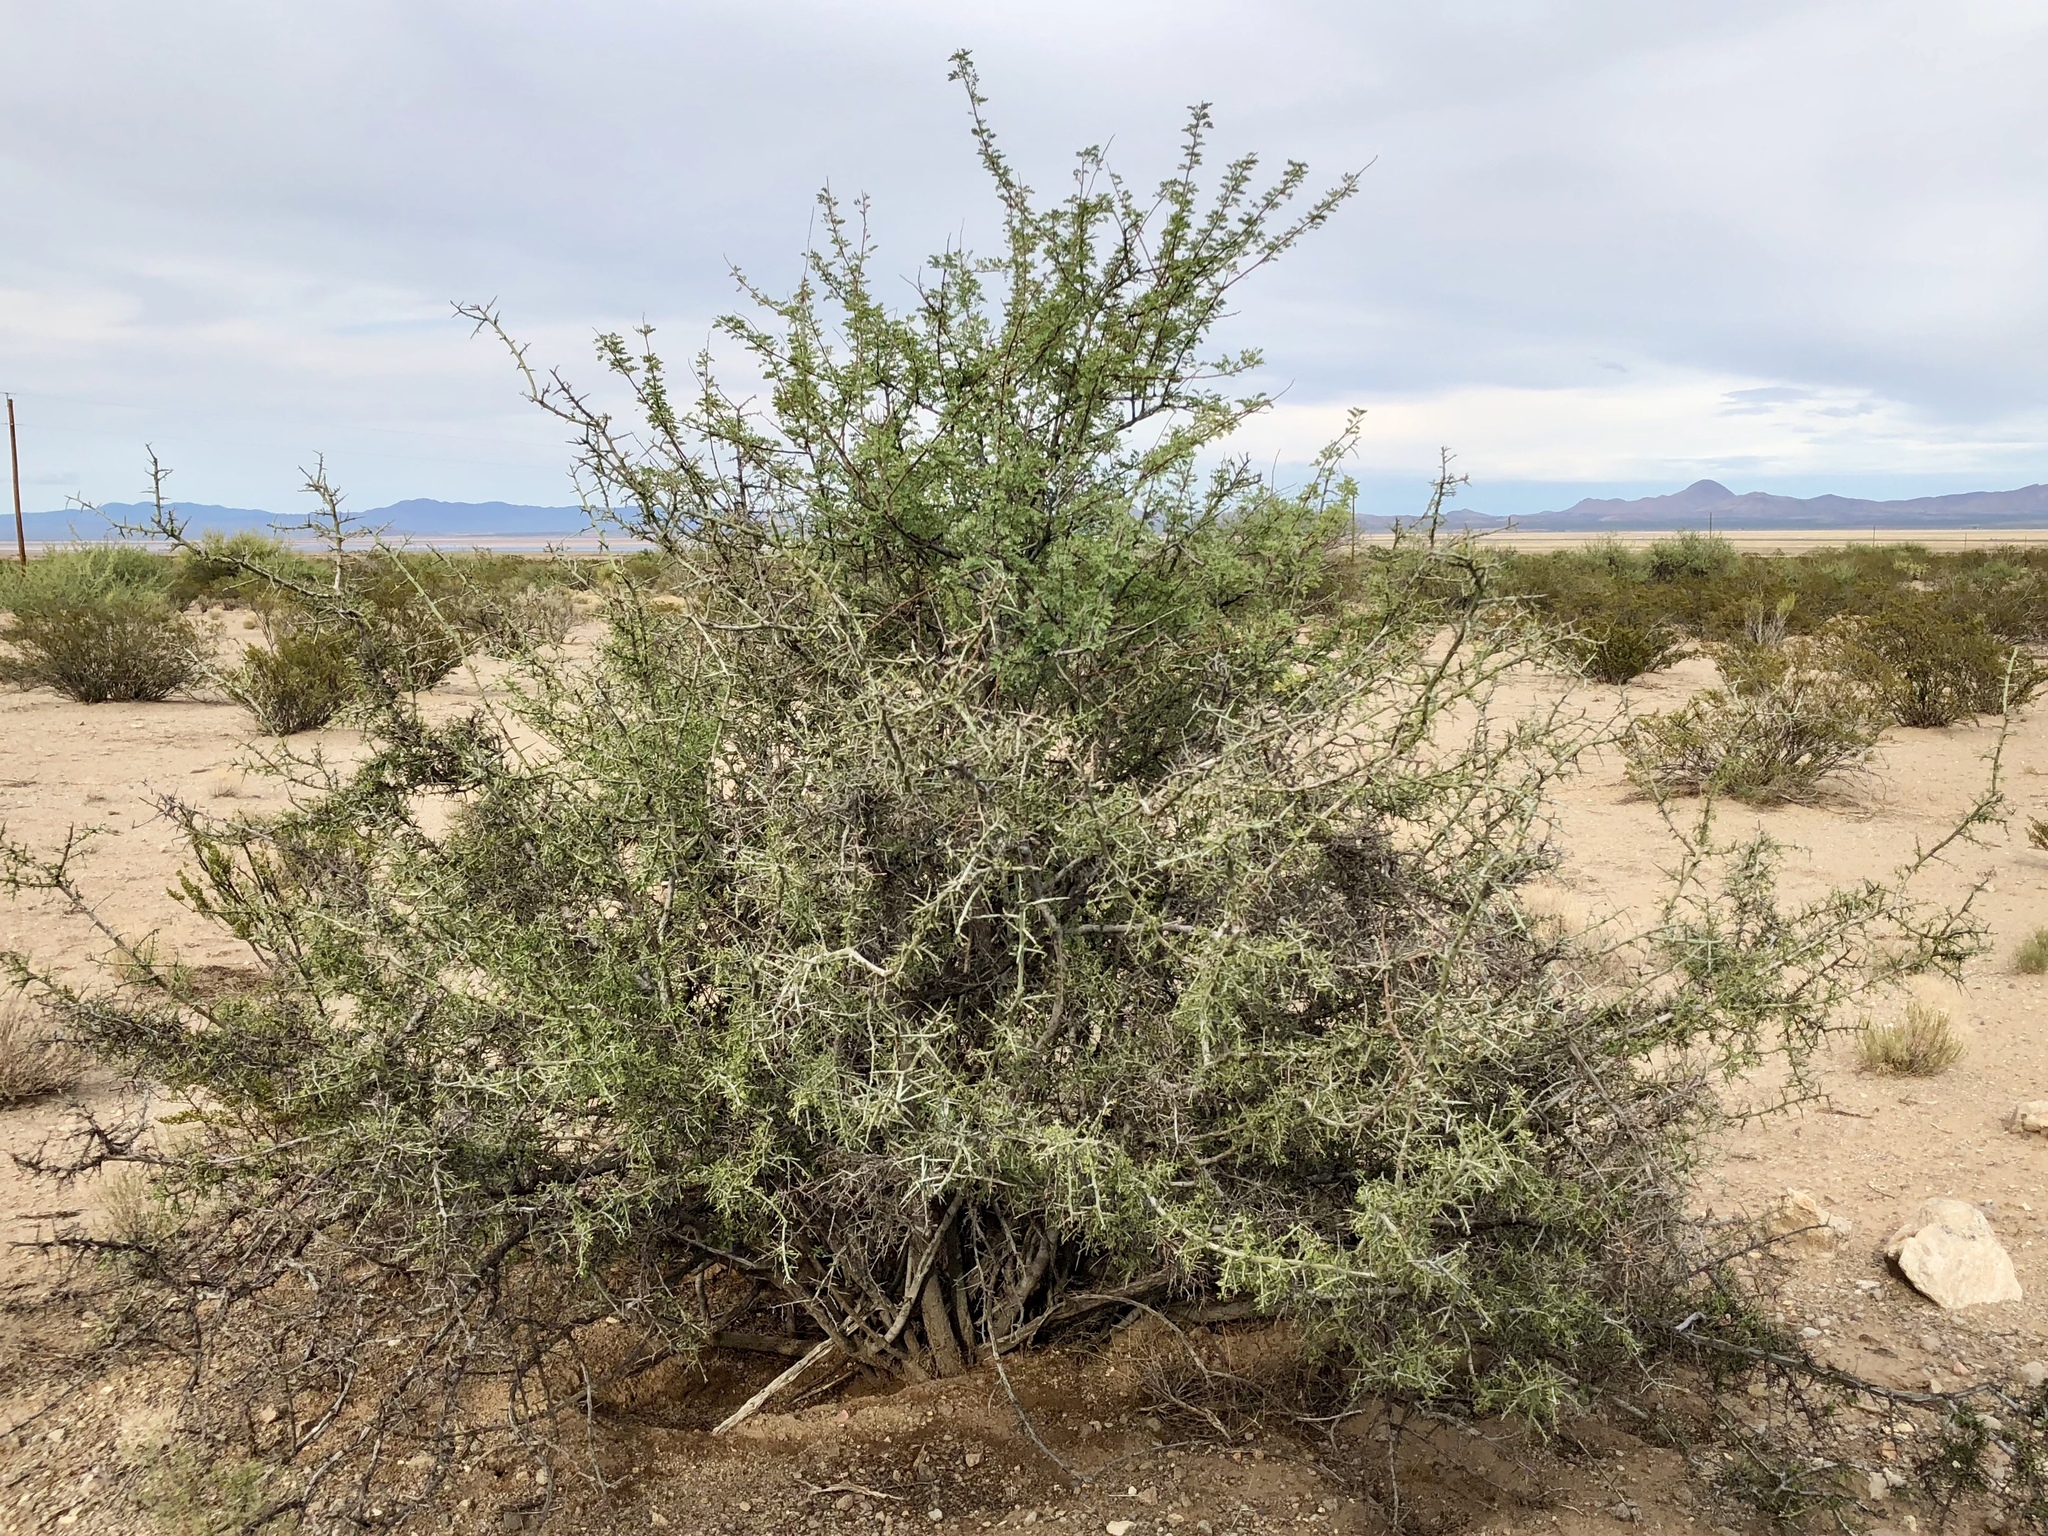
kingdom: Plantae
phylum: Tracheophyta
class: Magnoliopsida
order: Fabales
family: Fabaceae
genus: Senegalia
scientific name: Senegalia greggii
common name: Texas-mimosa
